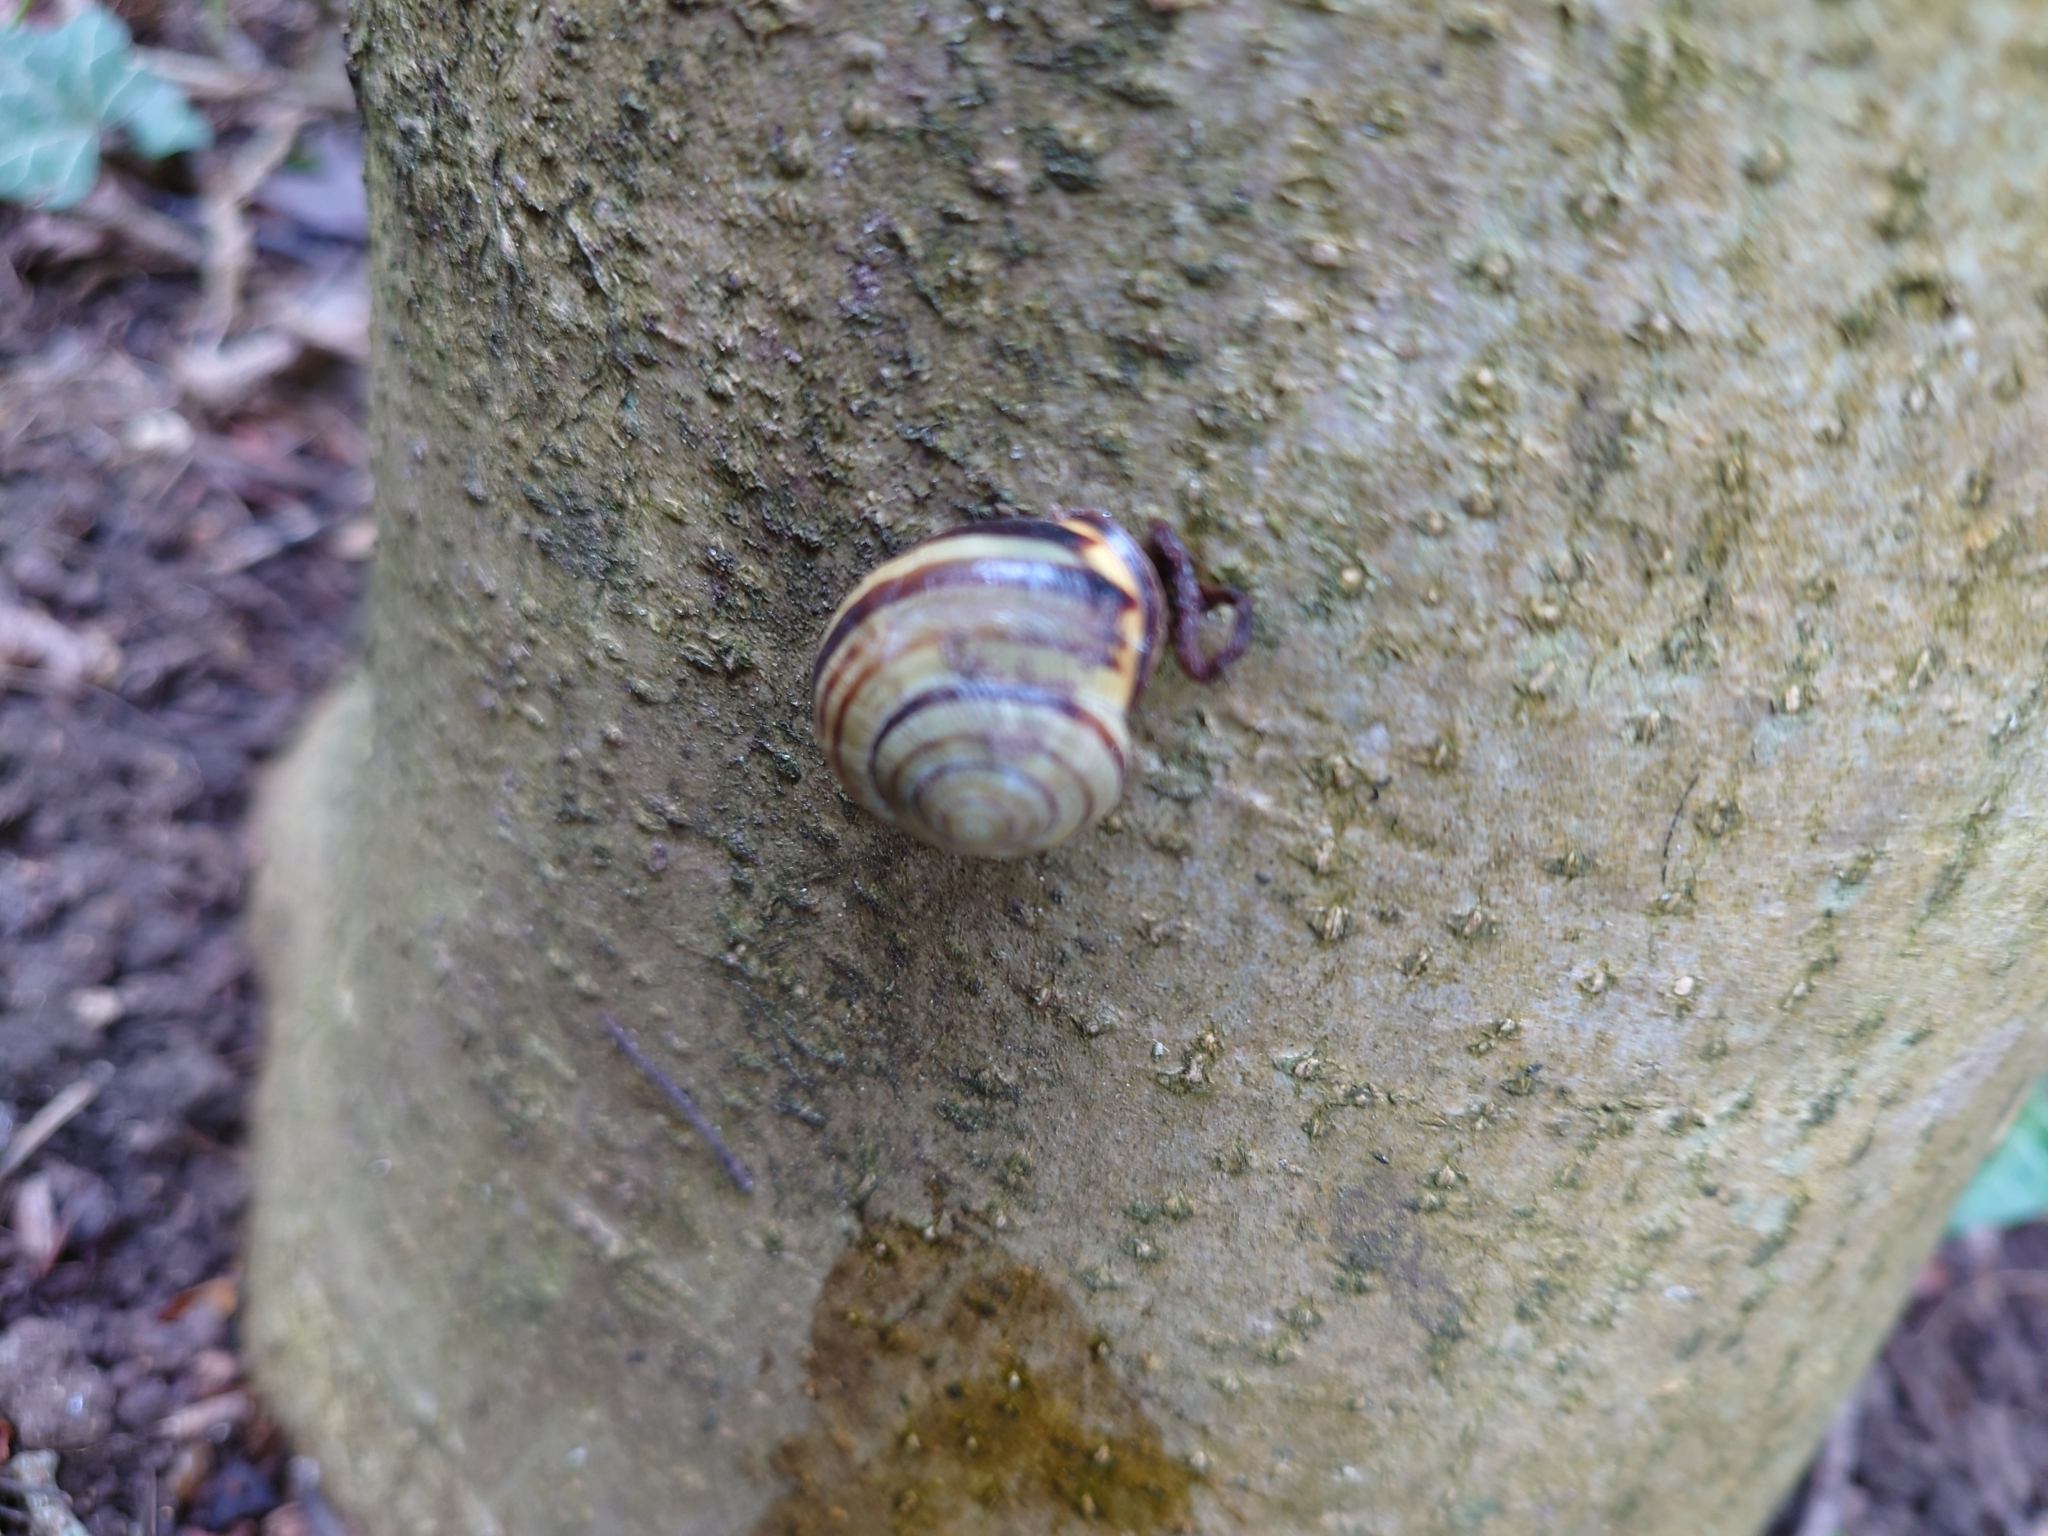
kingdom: Animalia
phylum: Mollusca
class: Gastropoda
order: Stylommatophora
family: Helicidae
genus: Cepaea
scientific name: Cepaea nemoralis
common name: Grovesnail
